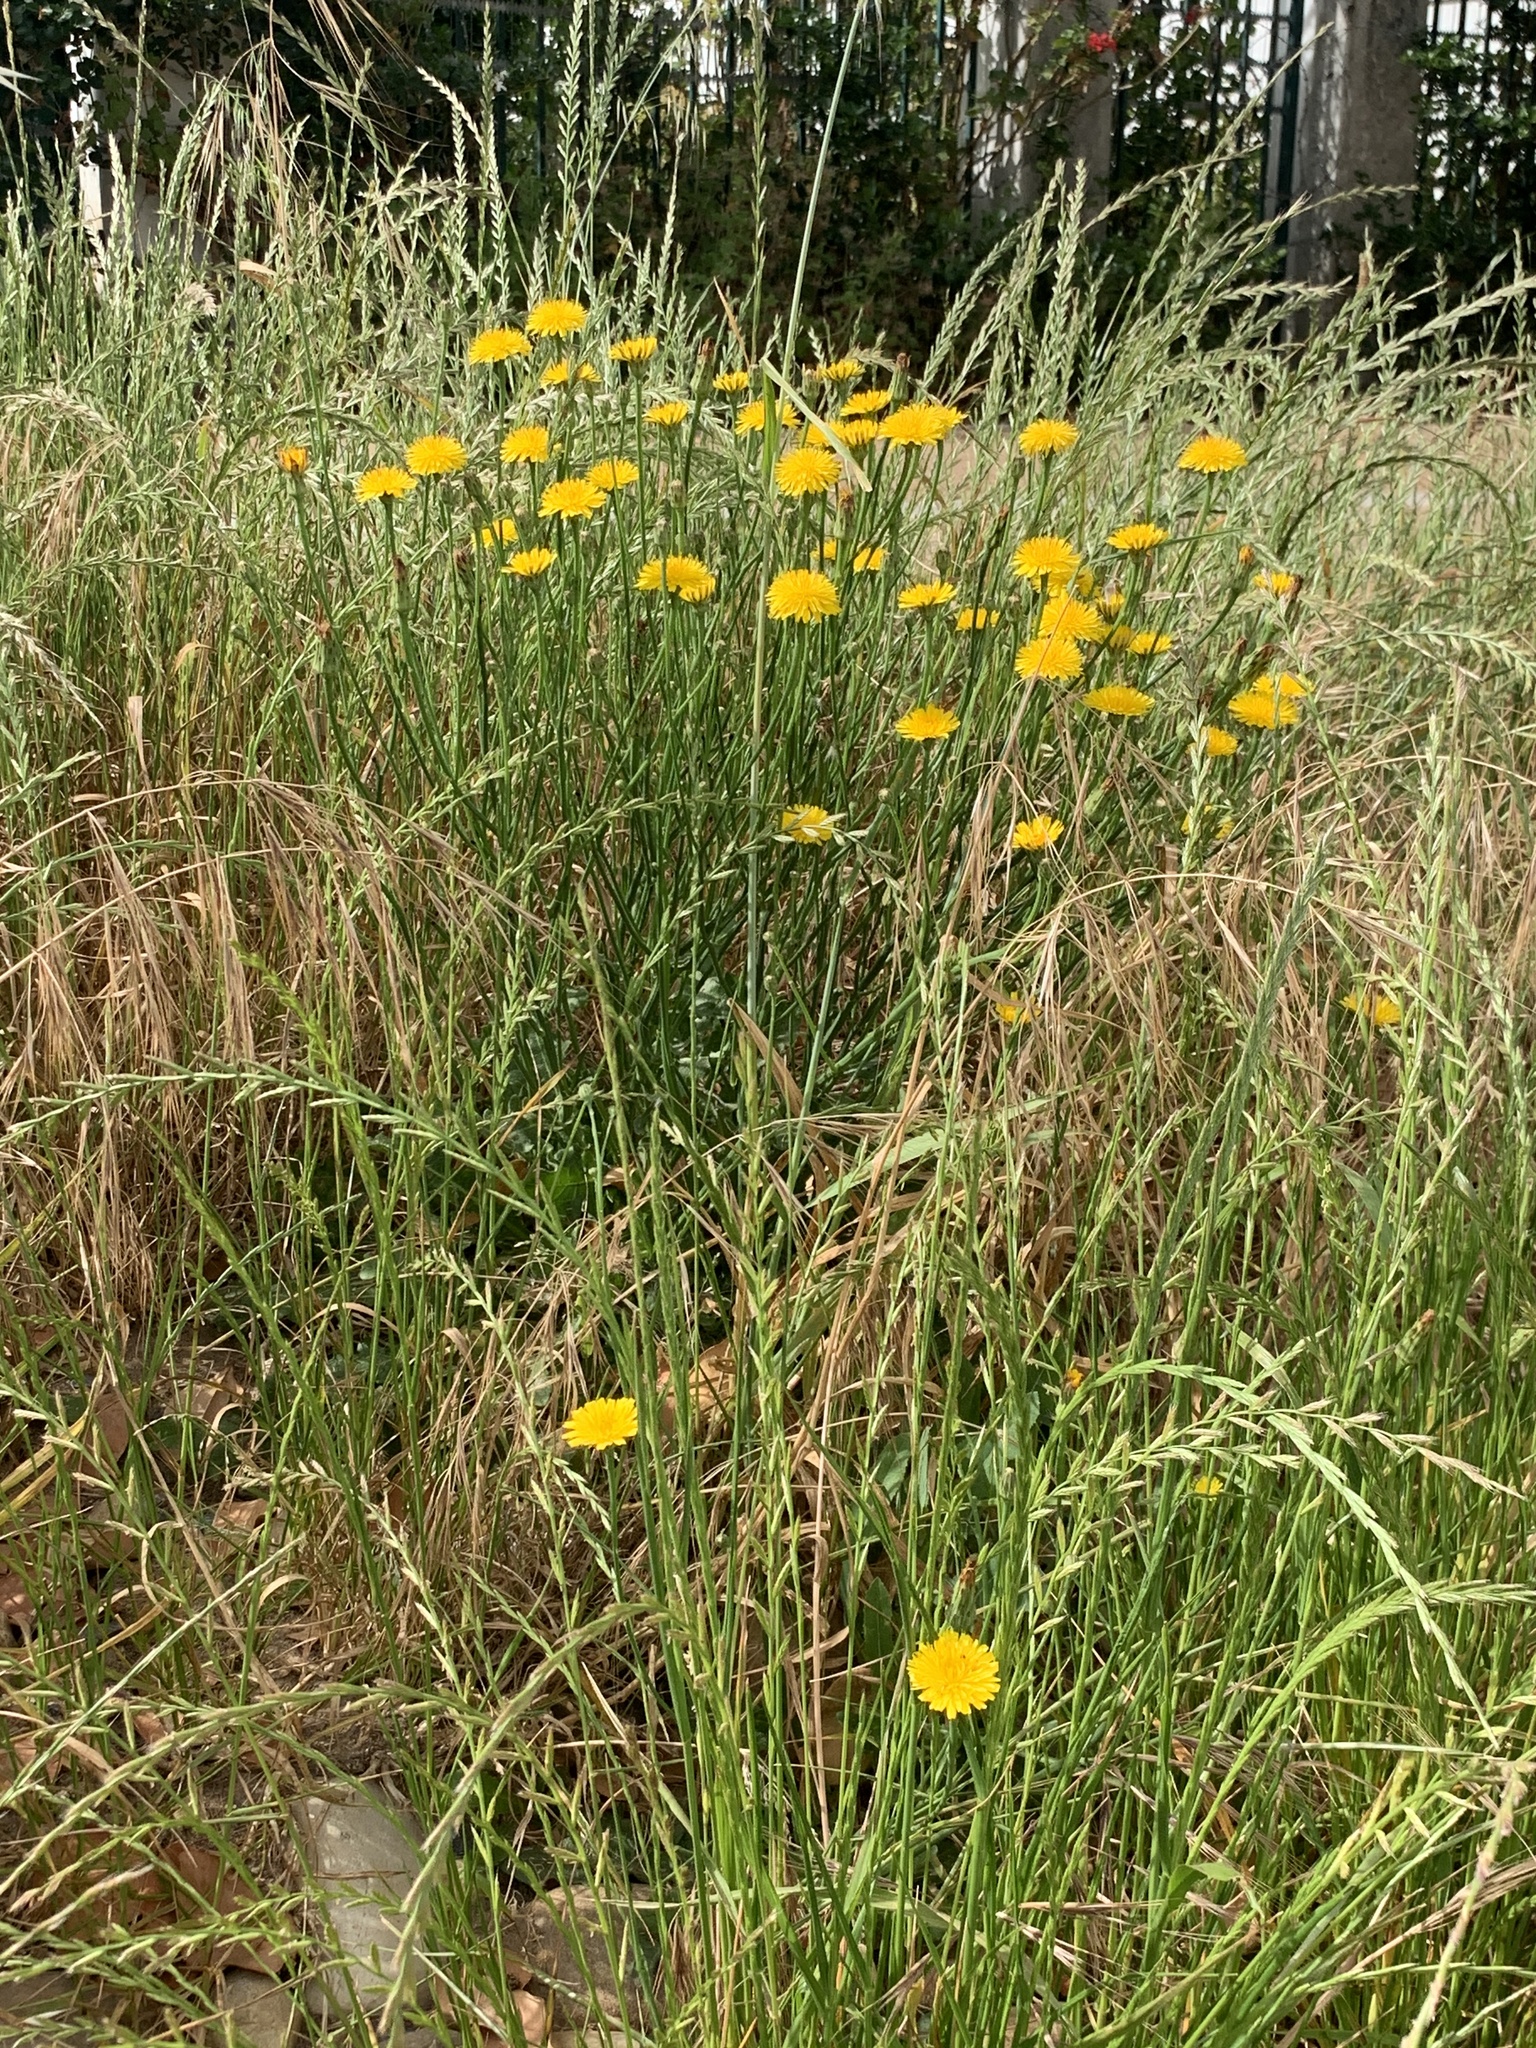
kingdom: Plantae
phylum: Tracheophyta
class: Magnoliopsida
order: Asterales
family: Asteraceae
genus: Hypochaeris
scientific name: Hypochaeris radicata
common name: Flatweed
